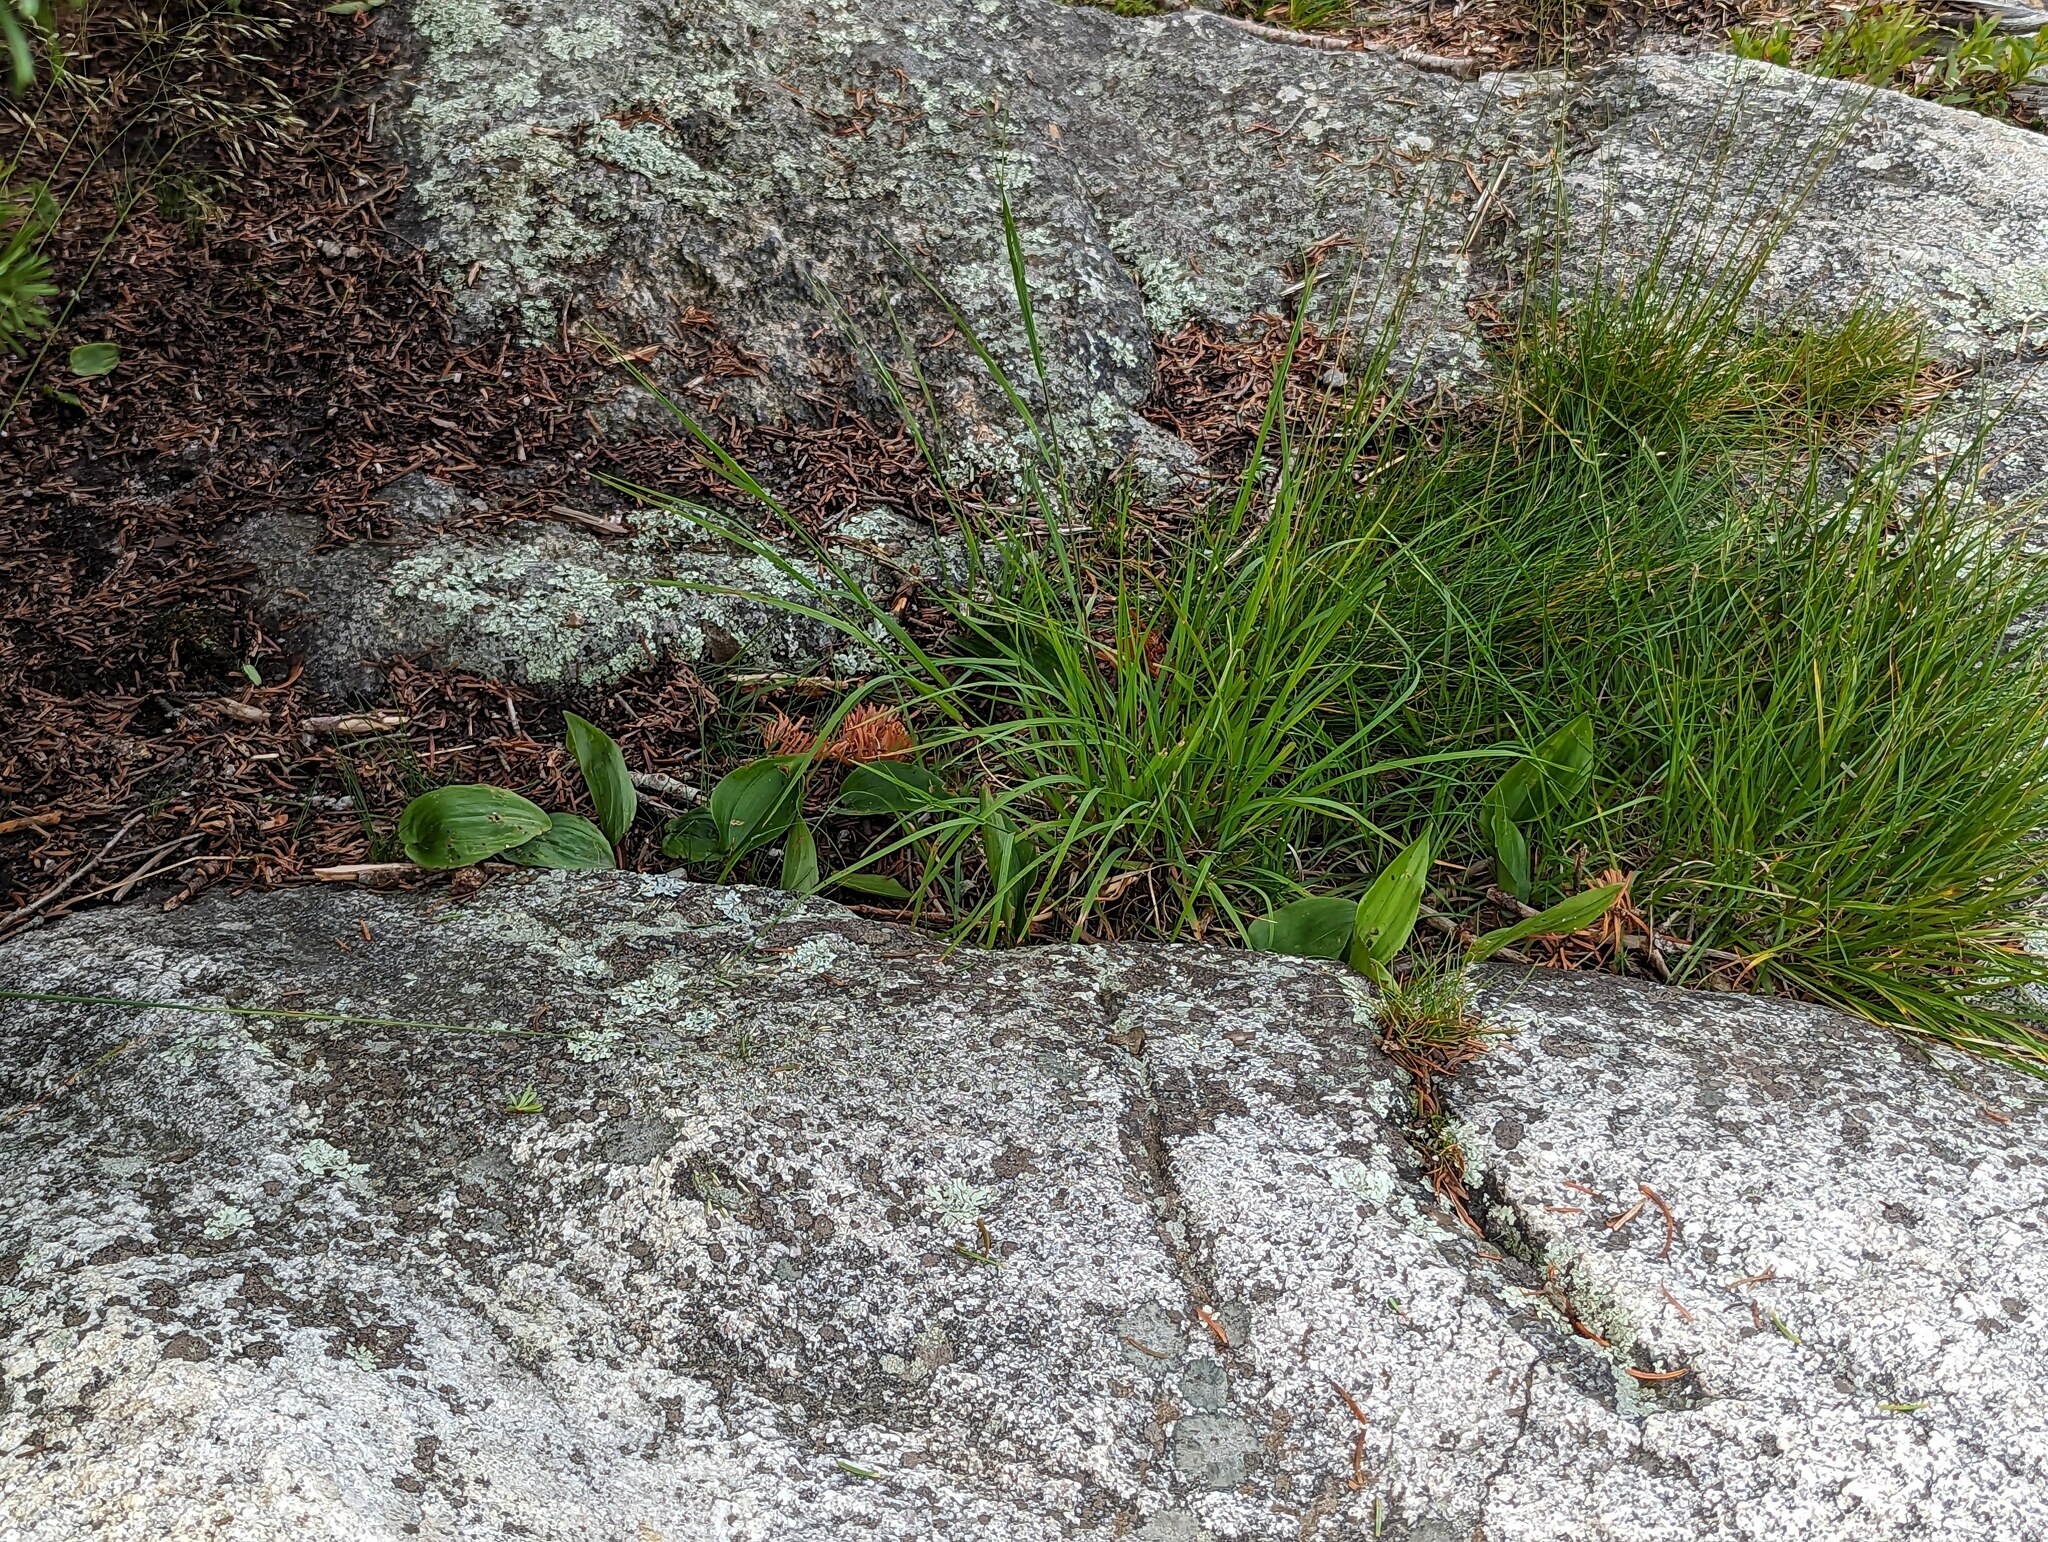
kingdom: Plantae
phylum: Tracheophyta
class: Liliopsida
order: Asparagales
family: Asparagaceae
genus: Maianthemum
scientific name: Maianthemum canadense
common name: False lily-of-the-valley
